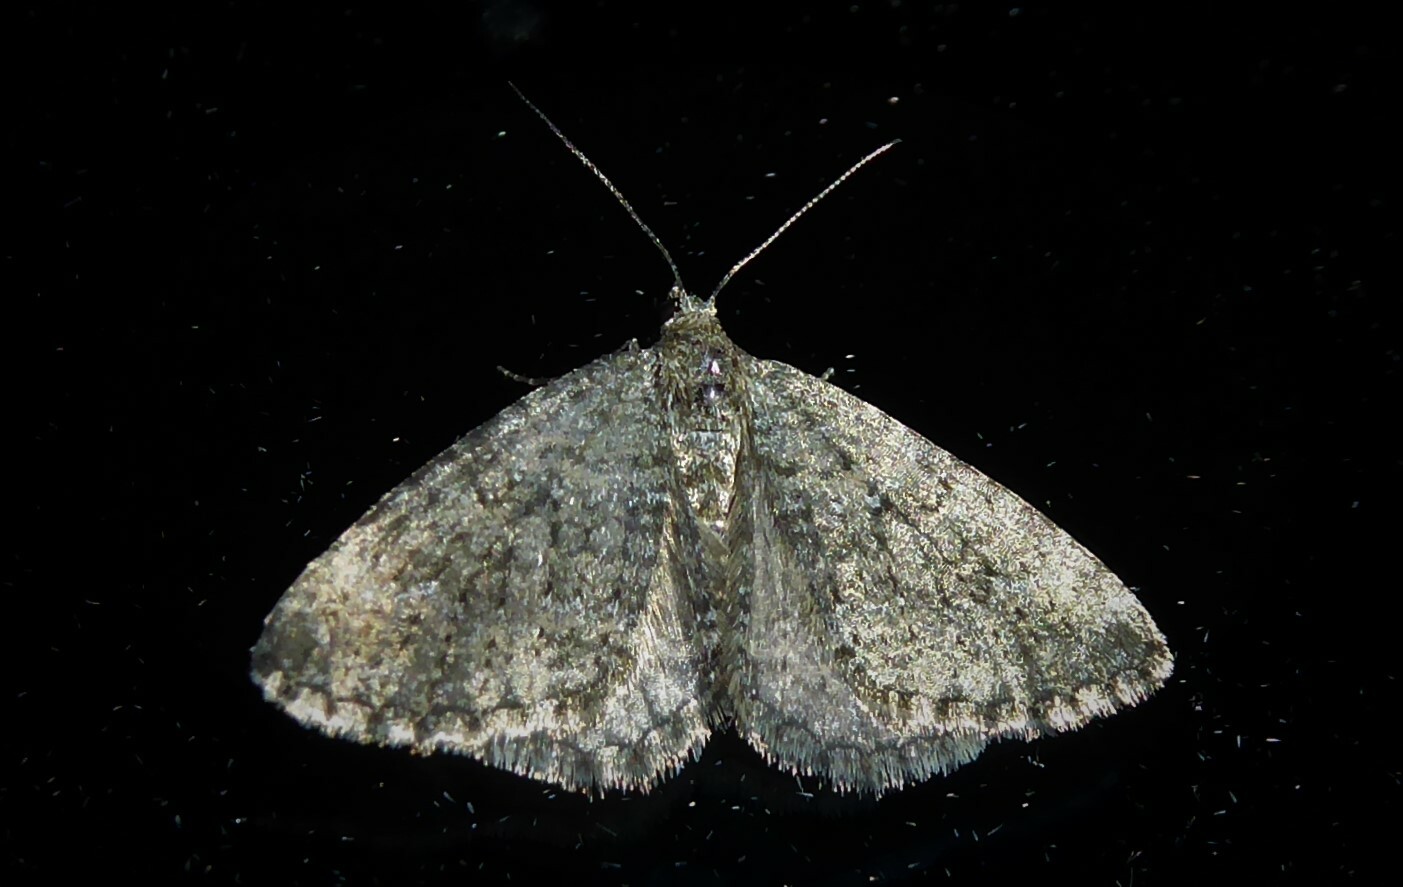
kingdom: Animalia
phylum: Arthropoda
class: Insecta
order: Lepidoptera
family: Geometridae
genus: Helastia
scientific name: Helastia corcularia
